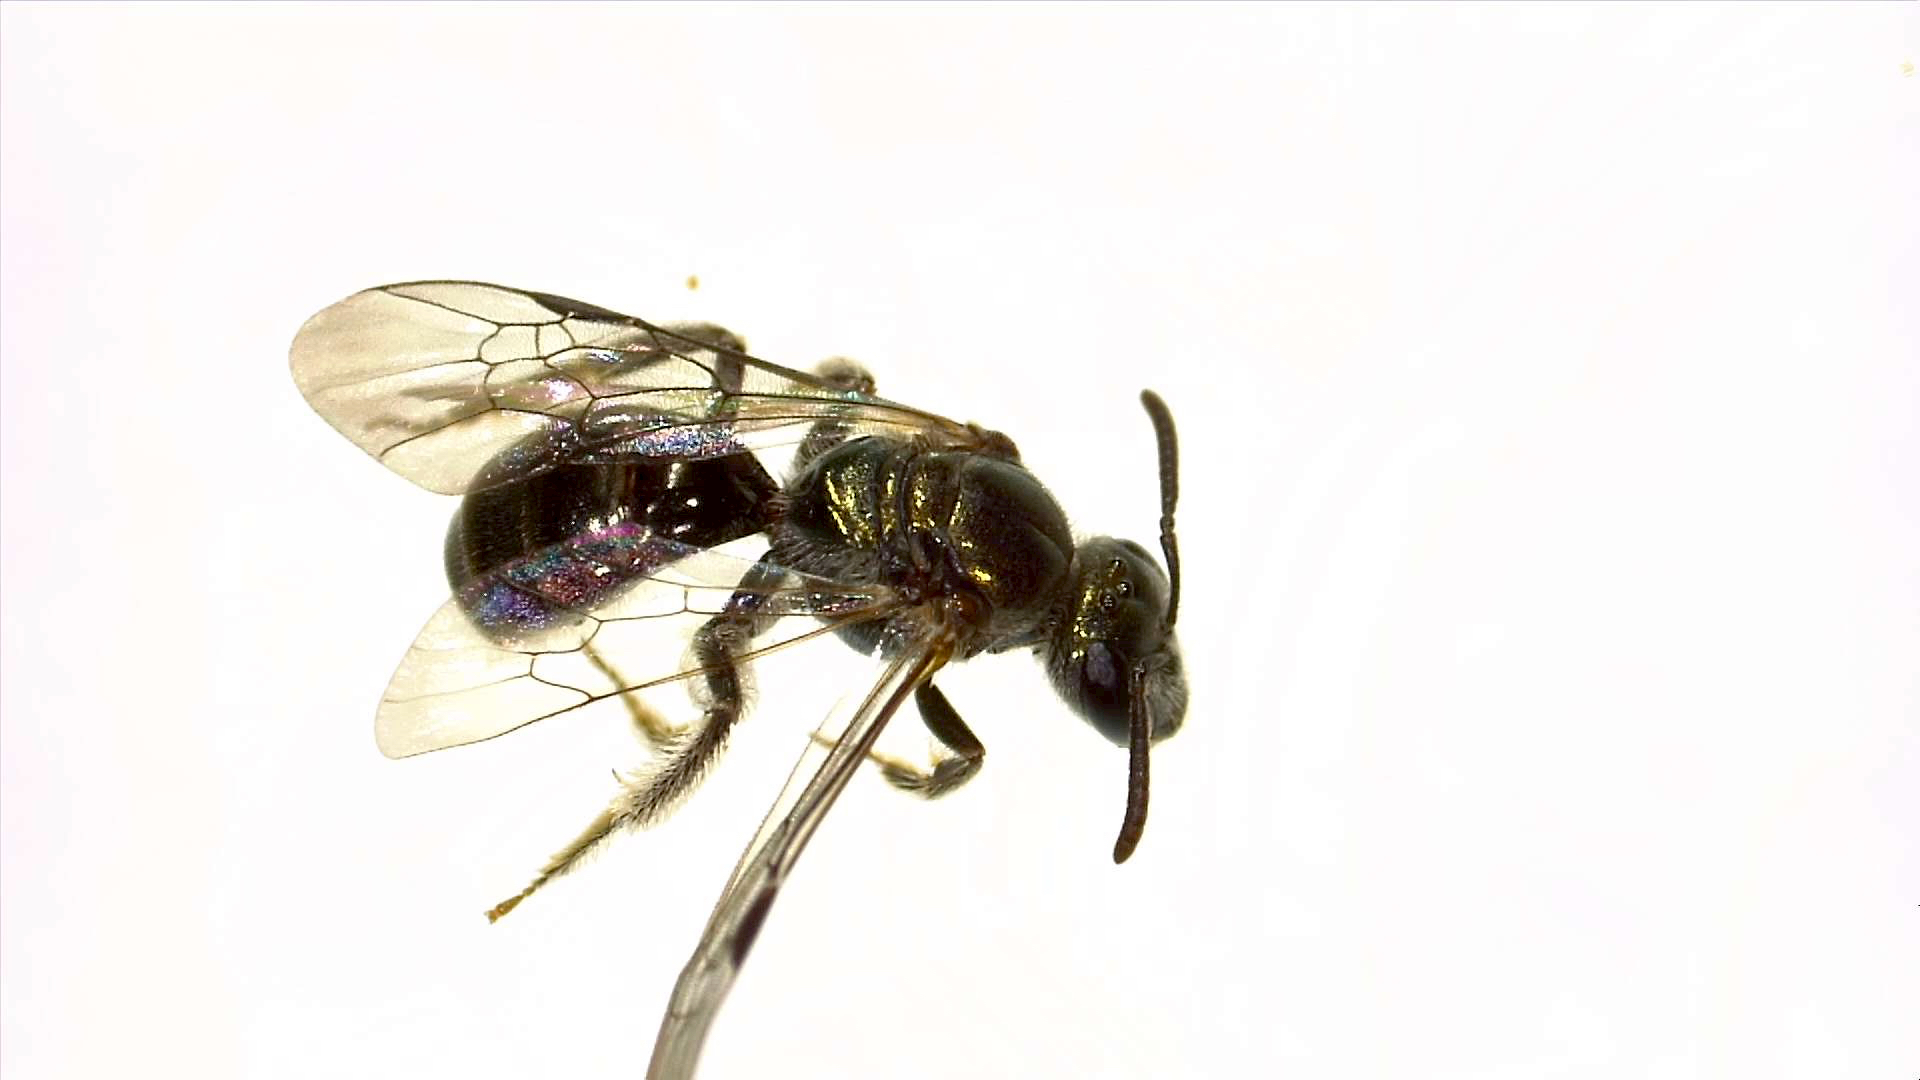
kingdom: Animalia
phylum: Arthropoda
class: Insecta
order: Hymenoptera
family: Halictidae
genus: Mexalictus
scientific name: Mexalictus arizonensis
